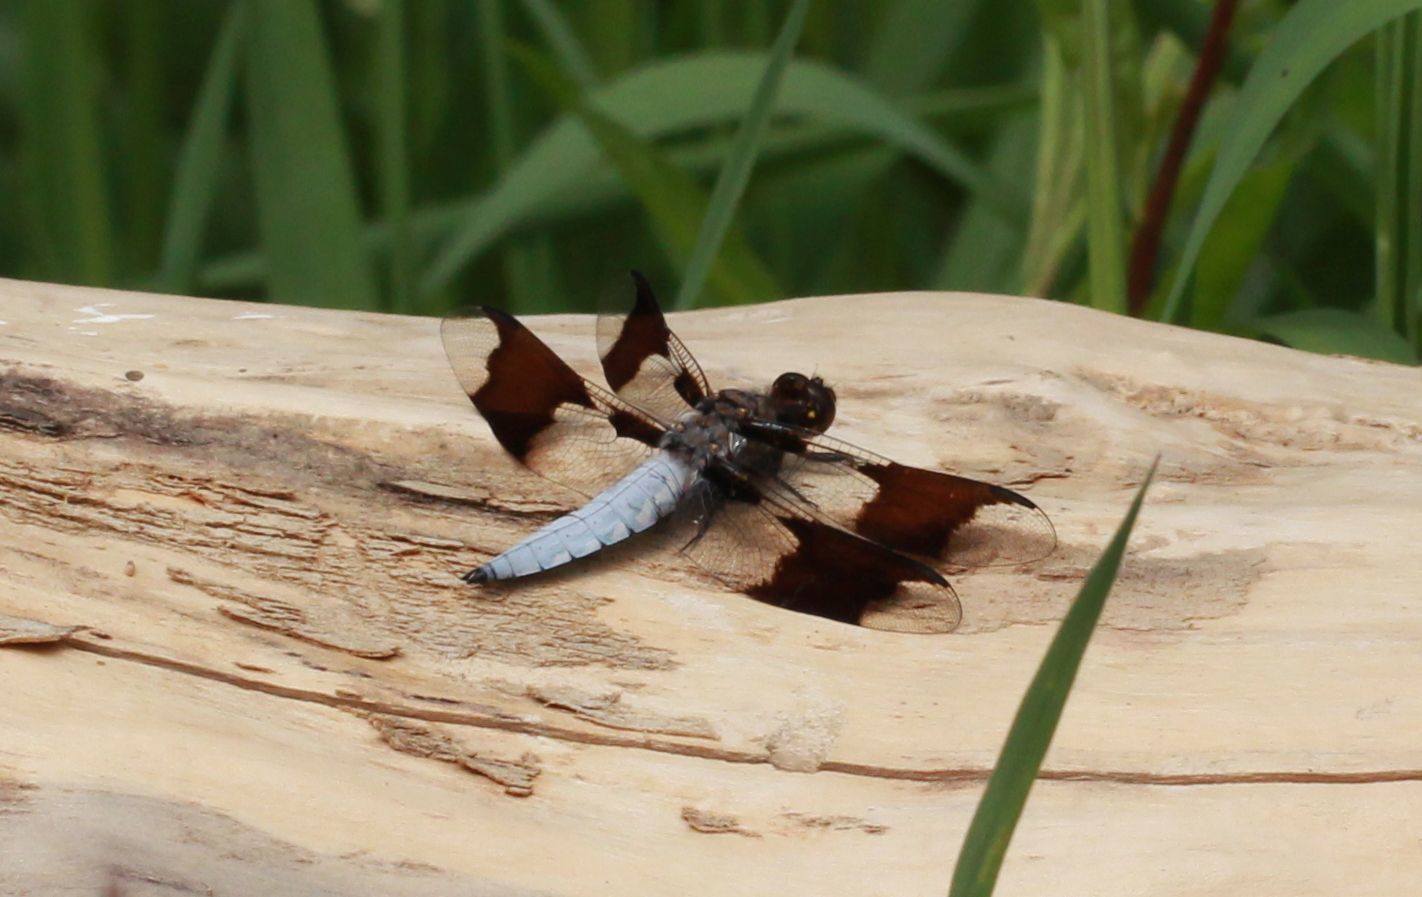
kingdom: Animalia
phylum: Arthropoda
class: Insecta
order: Odonata
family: Libellulidae
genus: Plathemis
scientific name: Plathemis lydia
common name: Common whitetail
